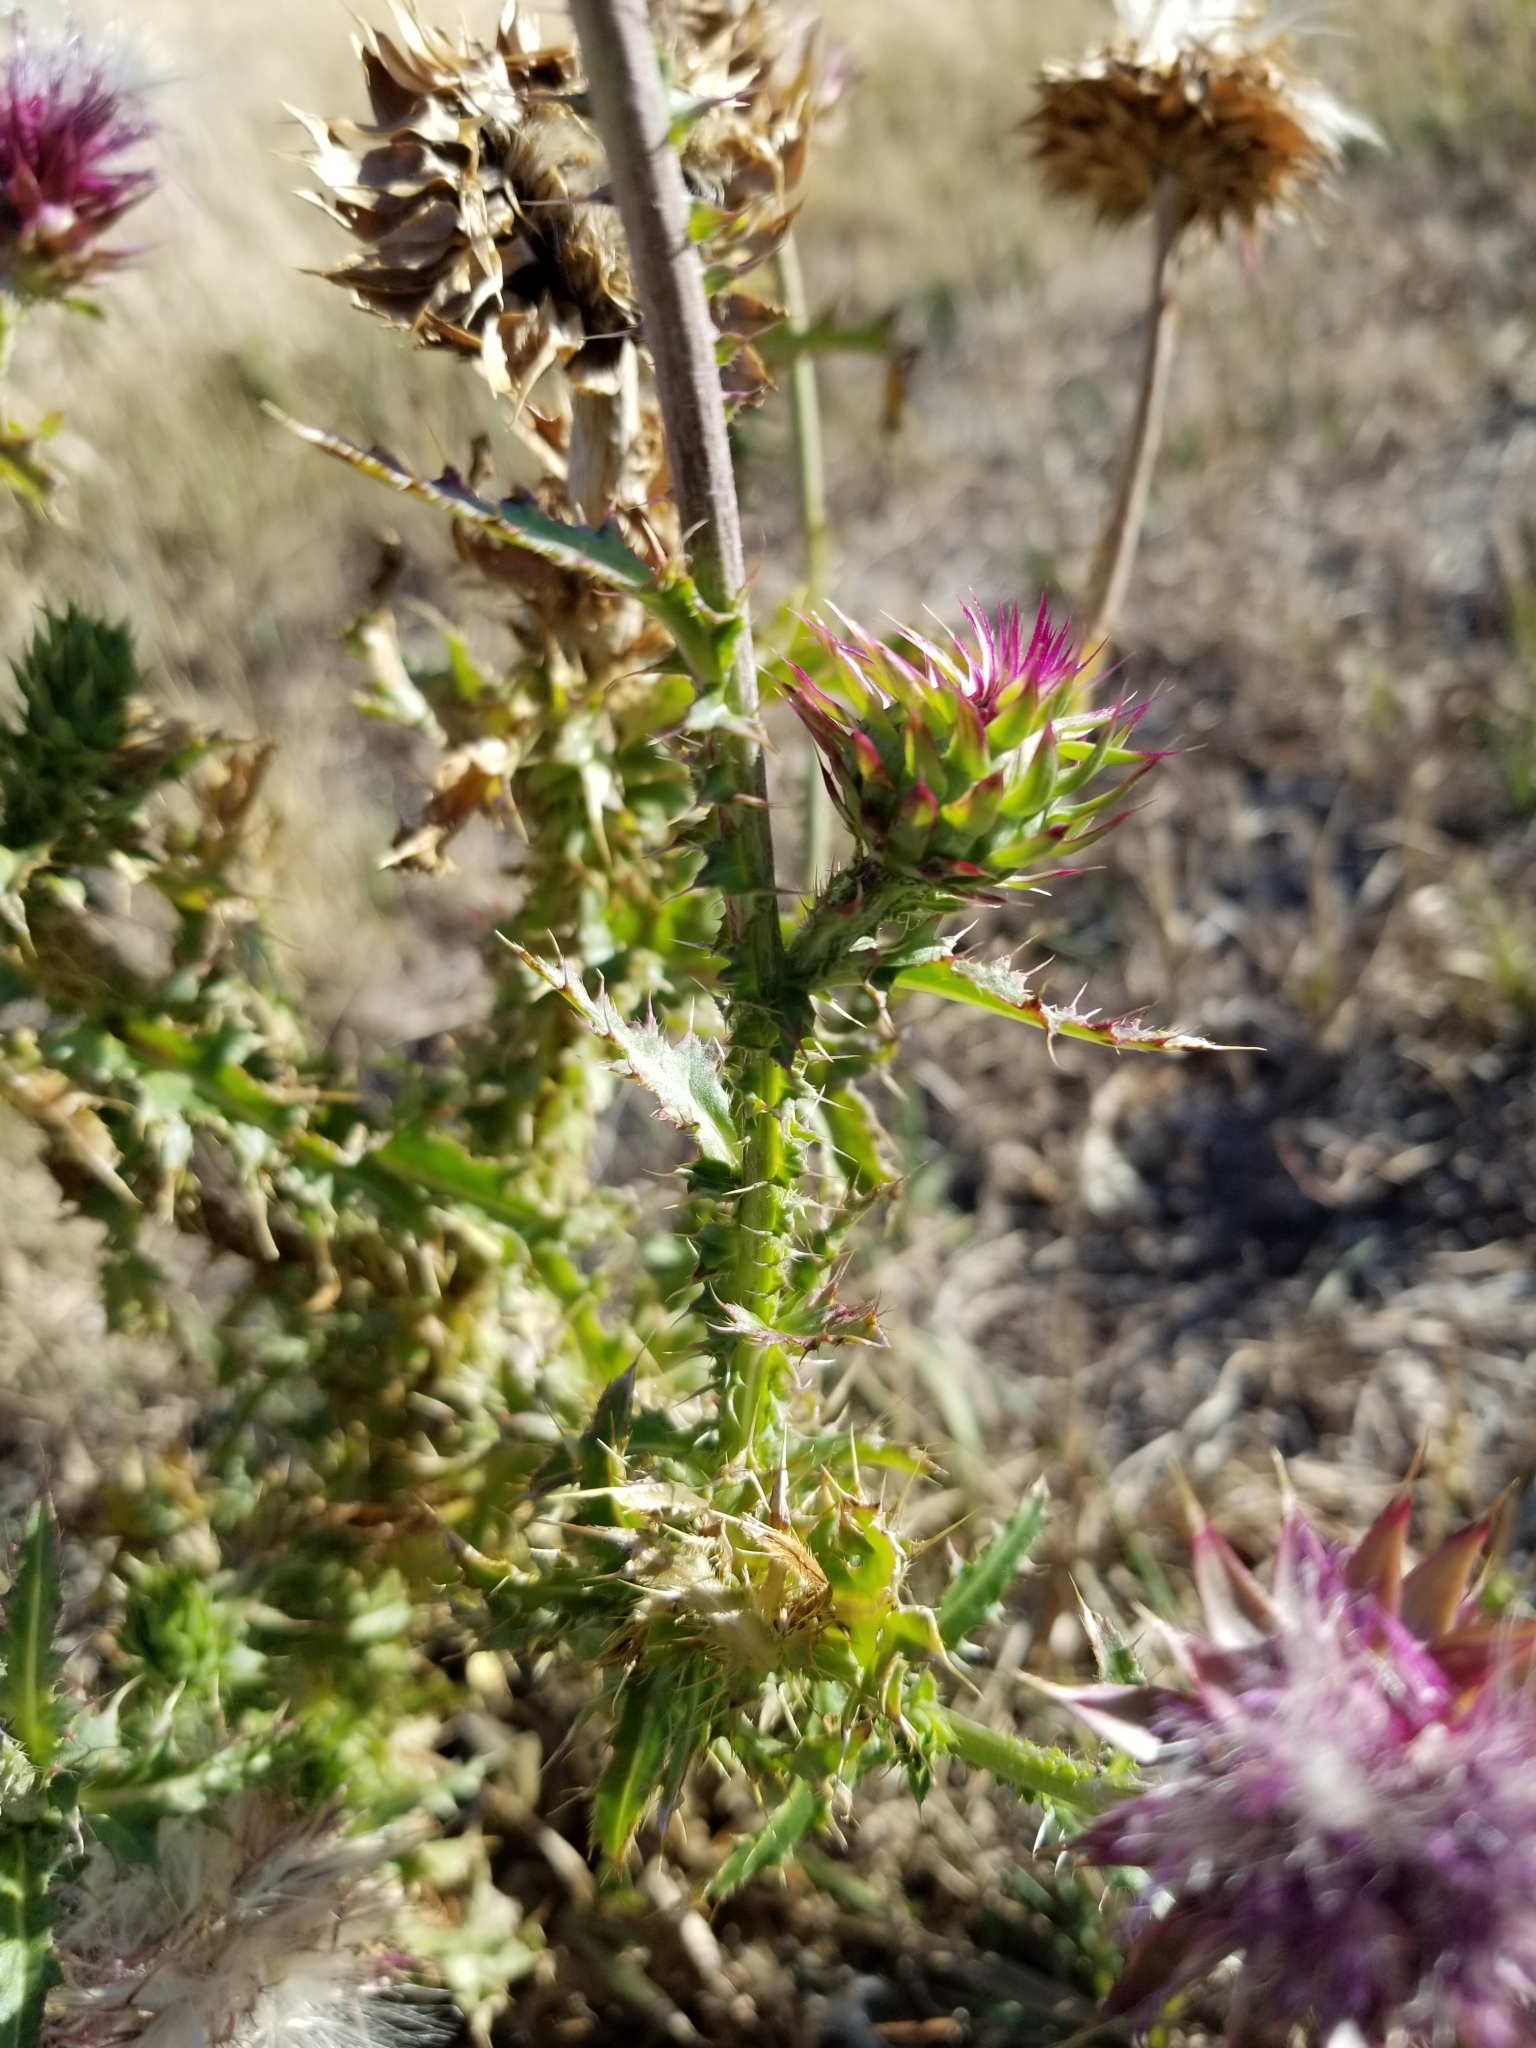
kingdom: Plantae
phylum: Tracheophyta
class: Magnoliopsida
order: Asterales
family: Asteraceae
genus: Carduus
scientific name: Carduus nutans
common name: Musk thistle
